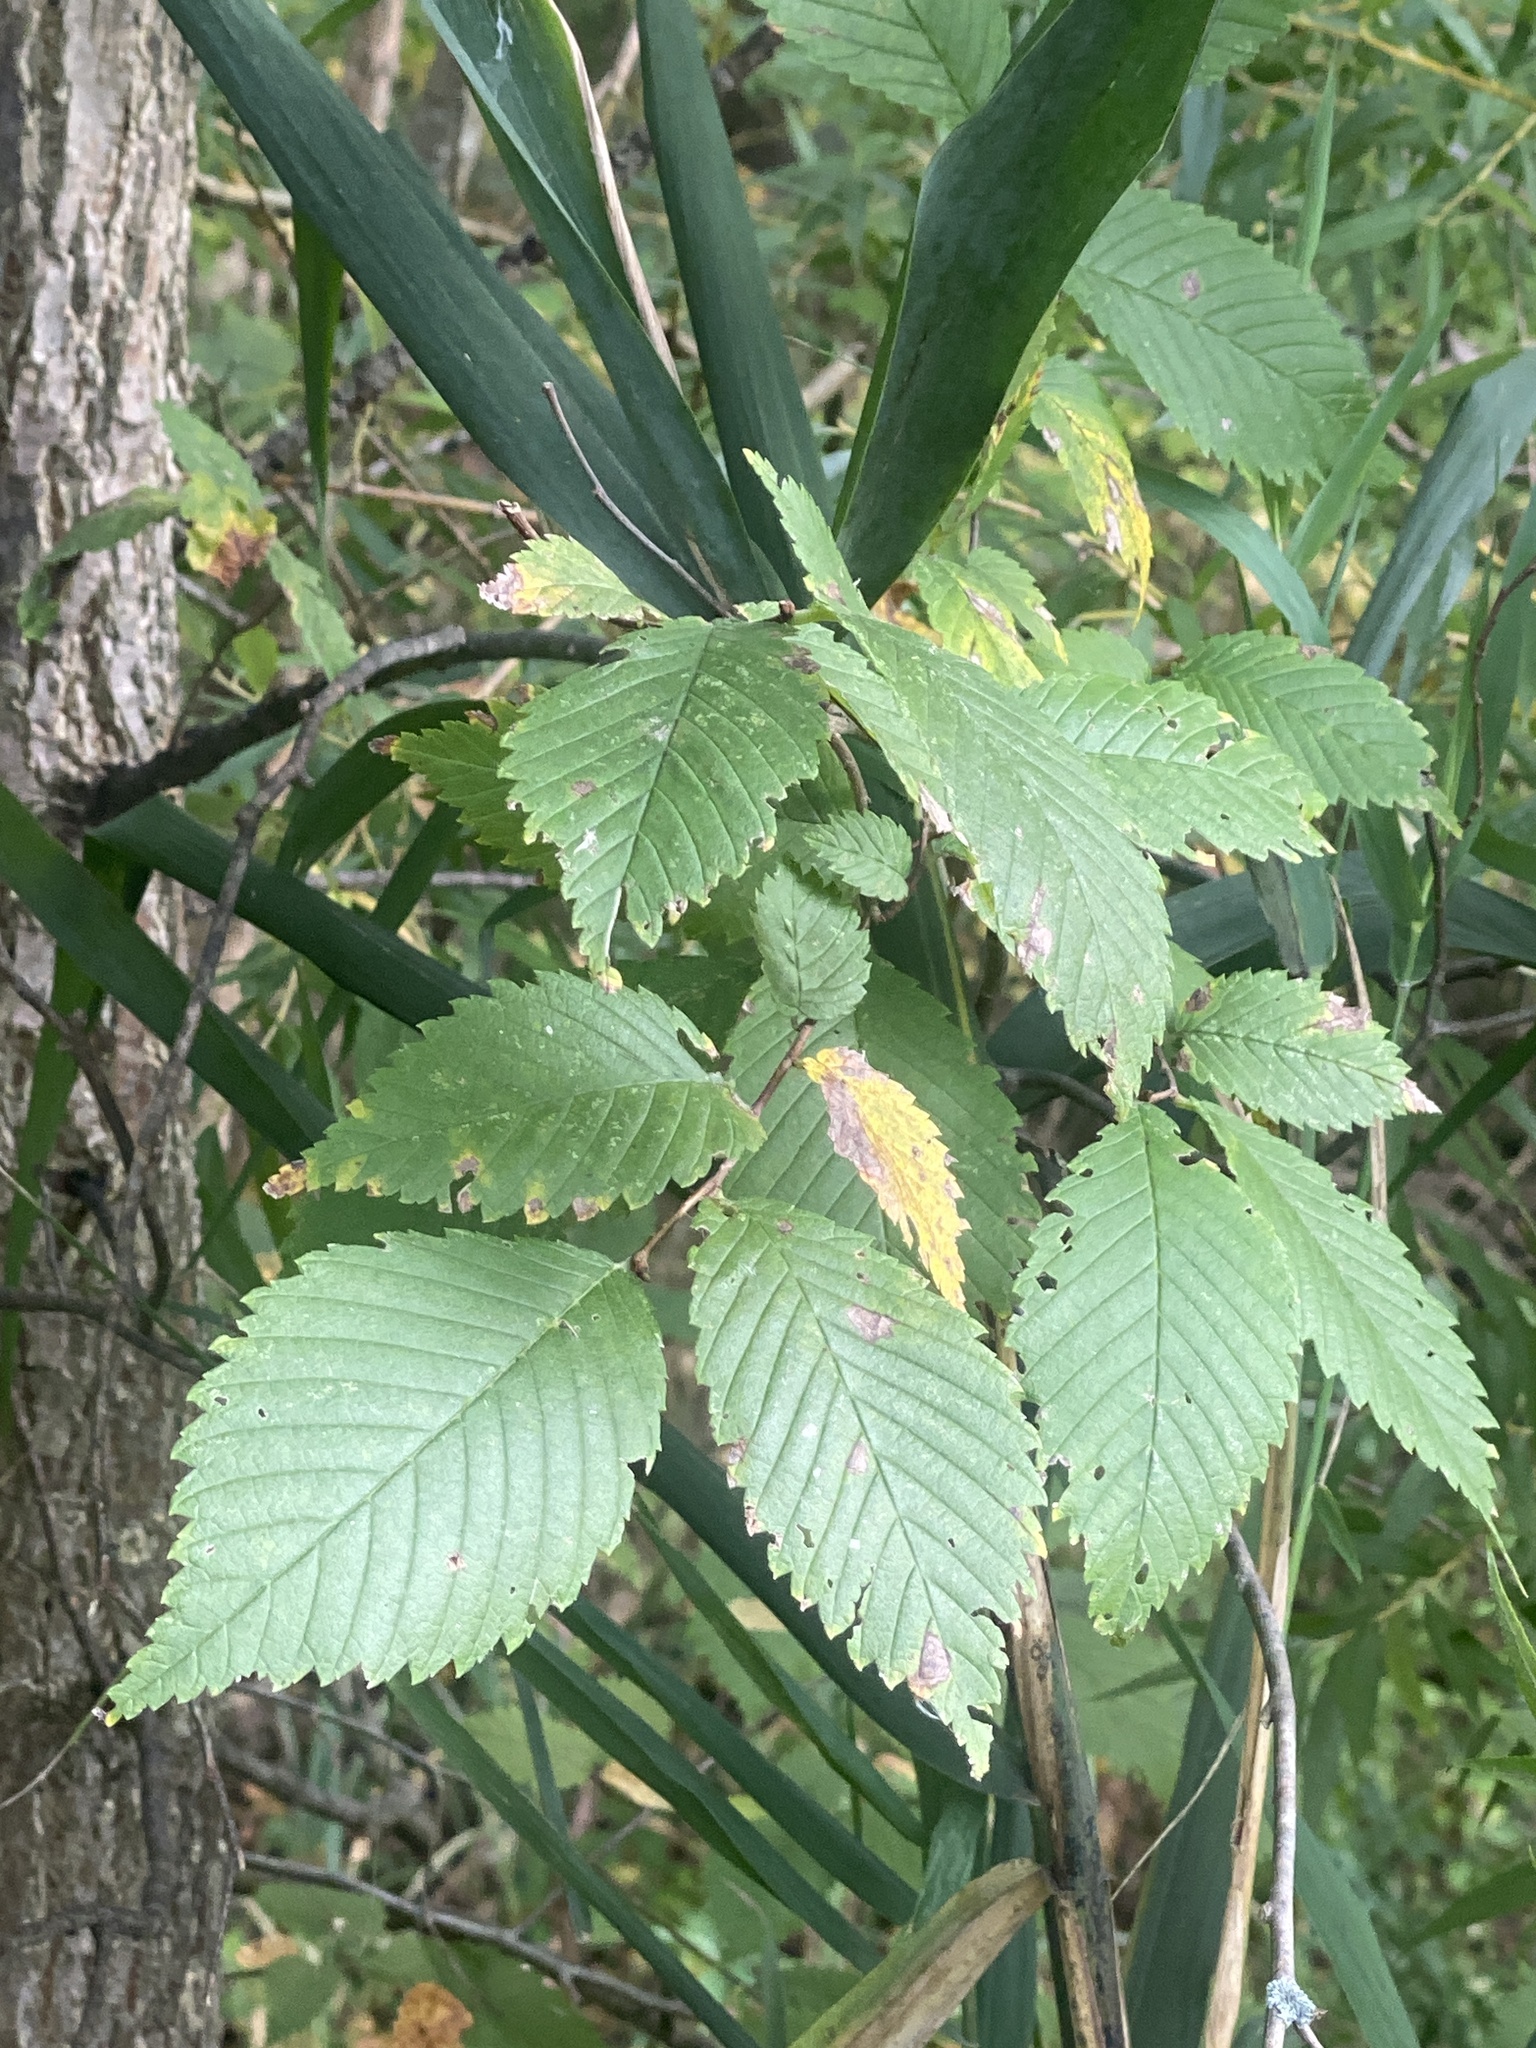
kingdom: Plantae
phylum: Tracheophyta
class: Magnoliopsida
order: Rosales
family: Ulmaceae
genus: Ulmus
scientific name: Ulmus americana
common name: American elm
